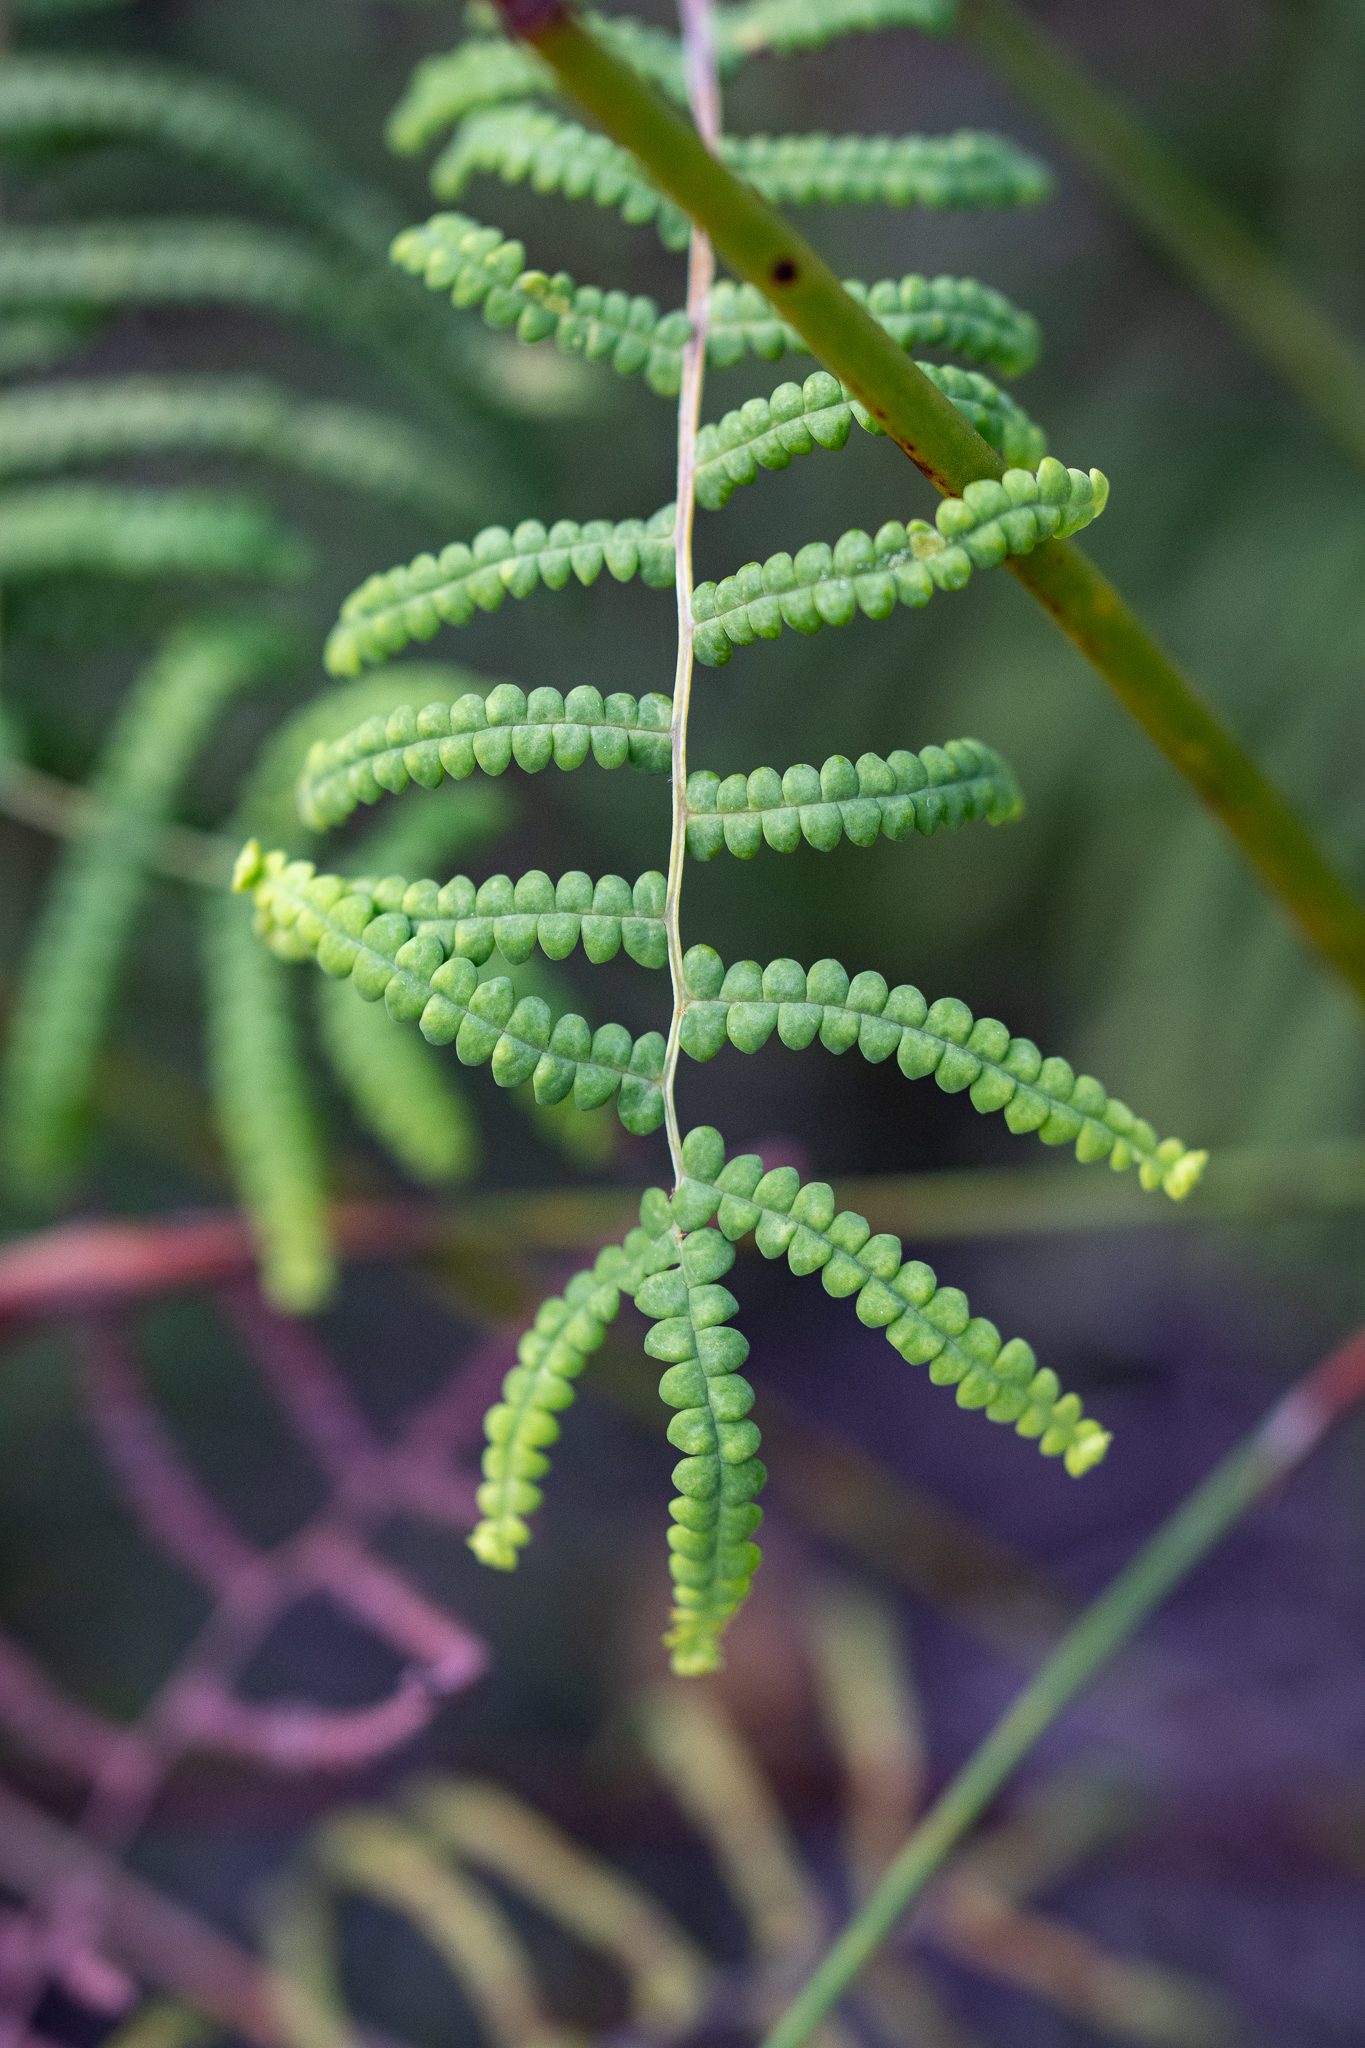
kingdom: Plantae
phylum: Tracheophyta
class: Polypodiopsida
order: Gleicheniales
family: Gleicheniaceae
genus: Gleichenia
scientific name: Gleichenia polypodioides
